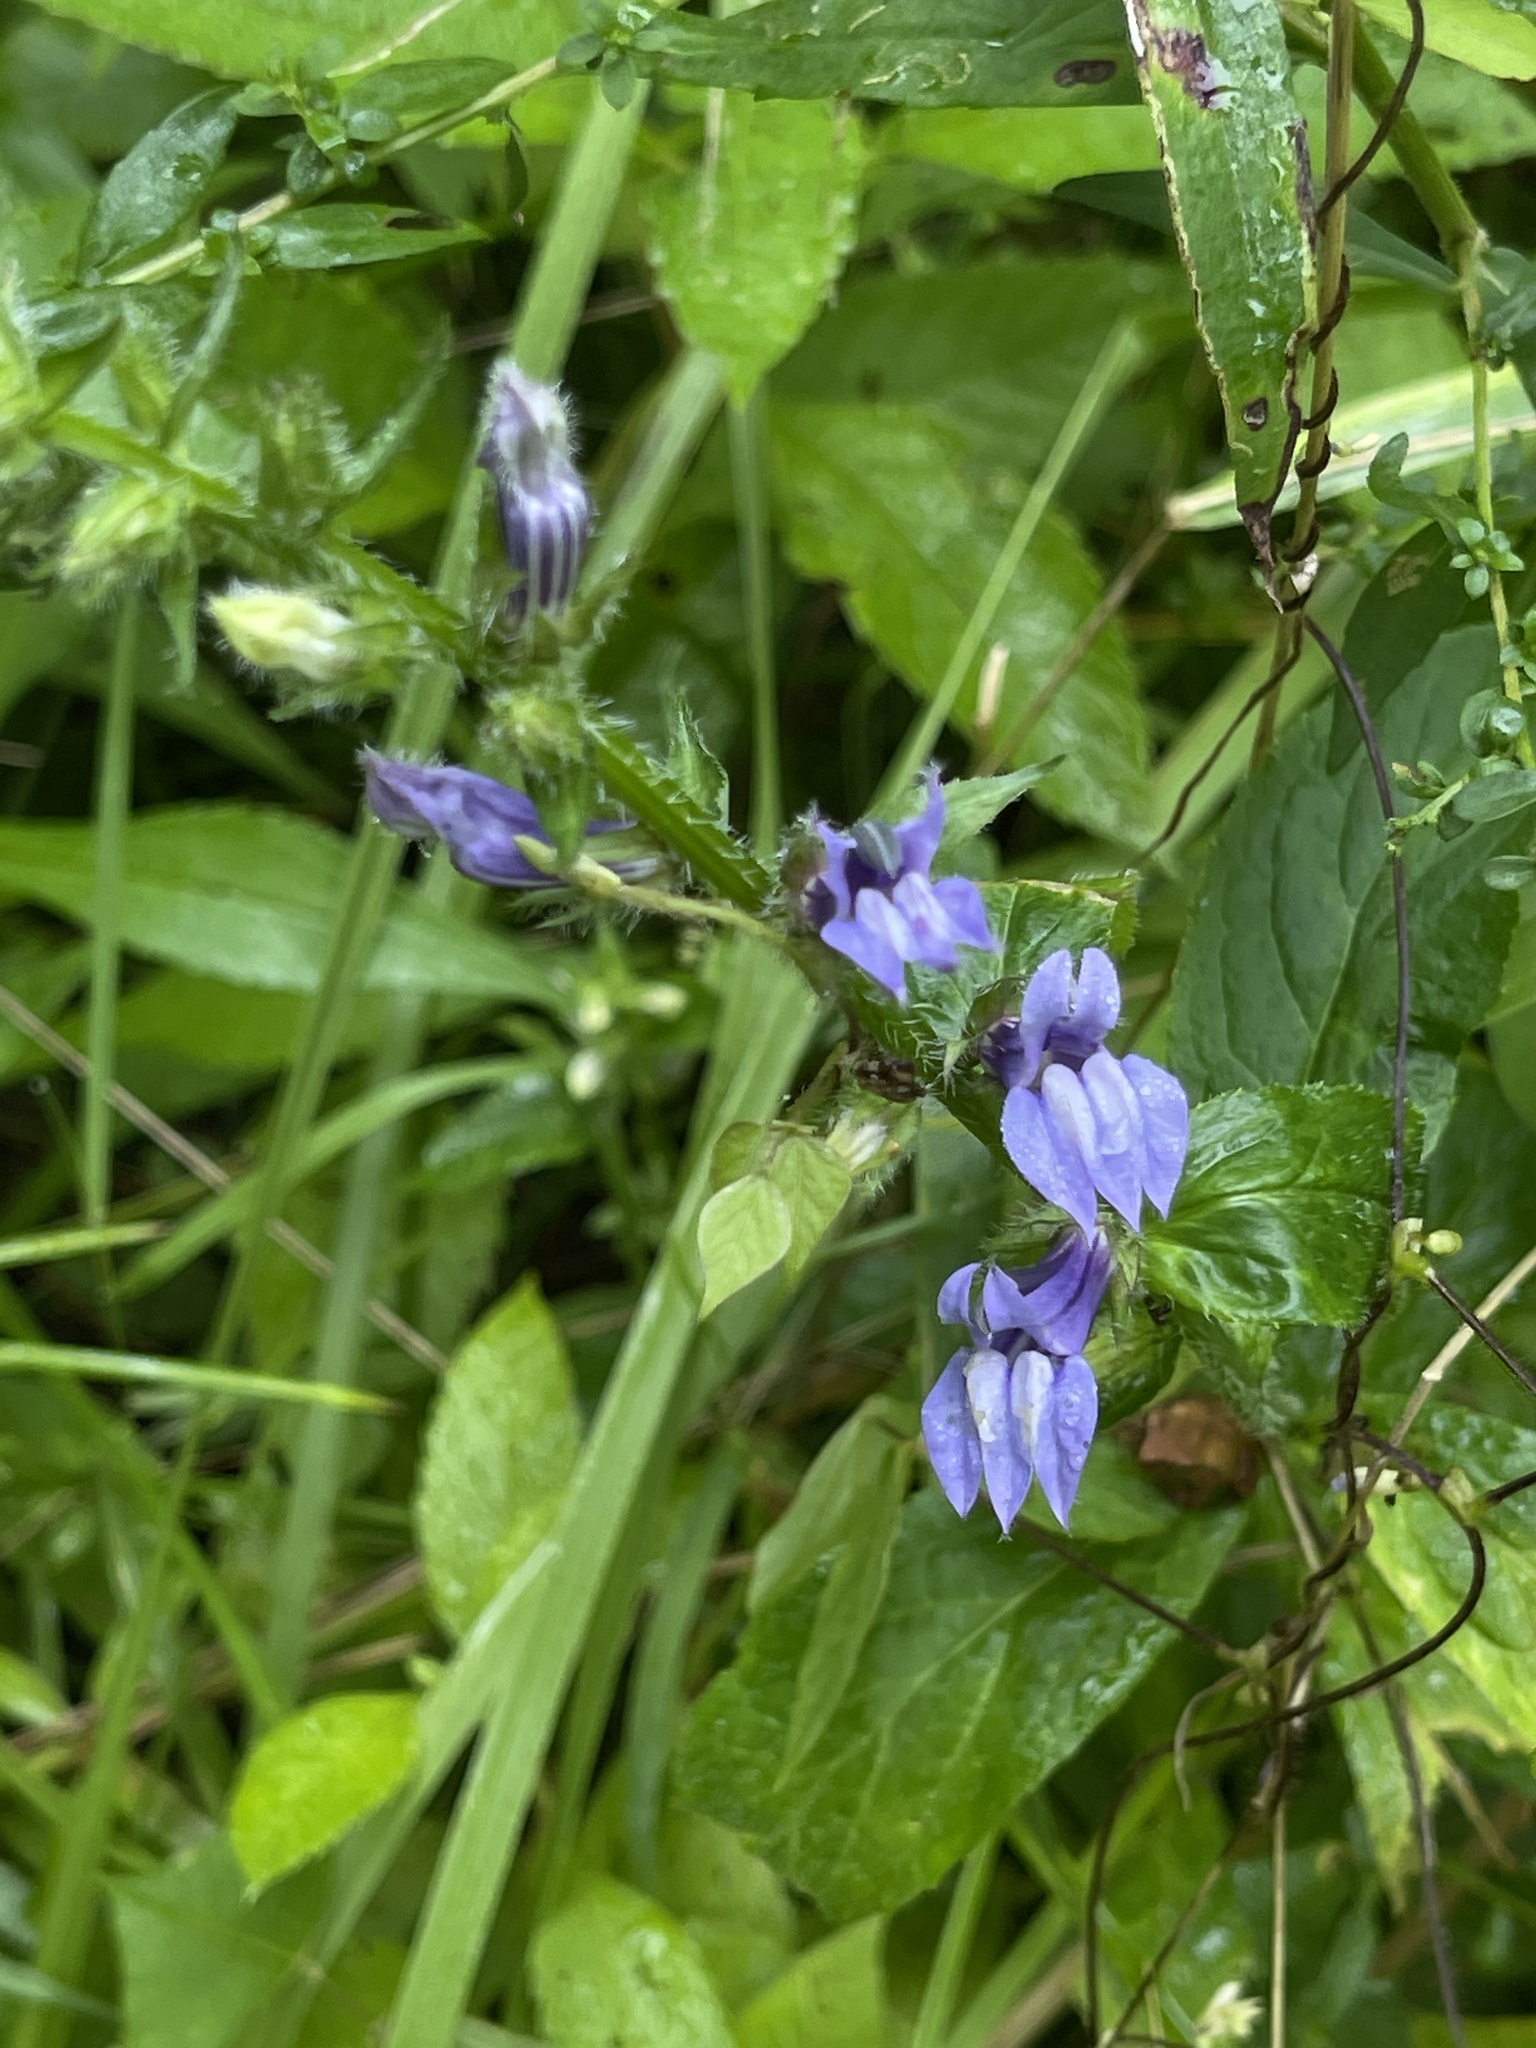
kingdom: Plantae
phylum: Tracheophyta
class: Magnoliopsida
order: Asterales
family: Campanulaceae
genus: Lobelia
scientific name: Lobelia siphilitica
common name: Great lobelia
